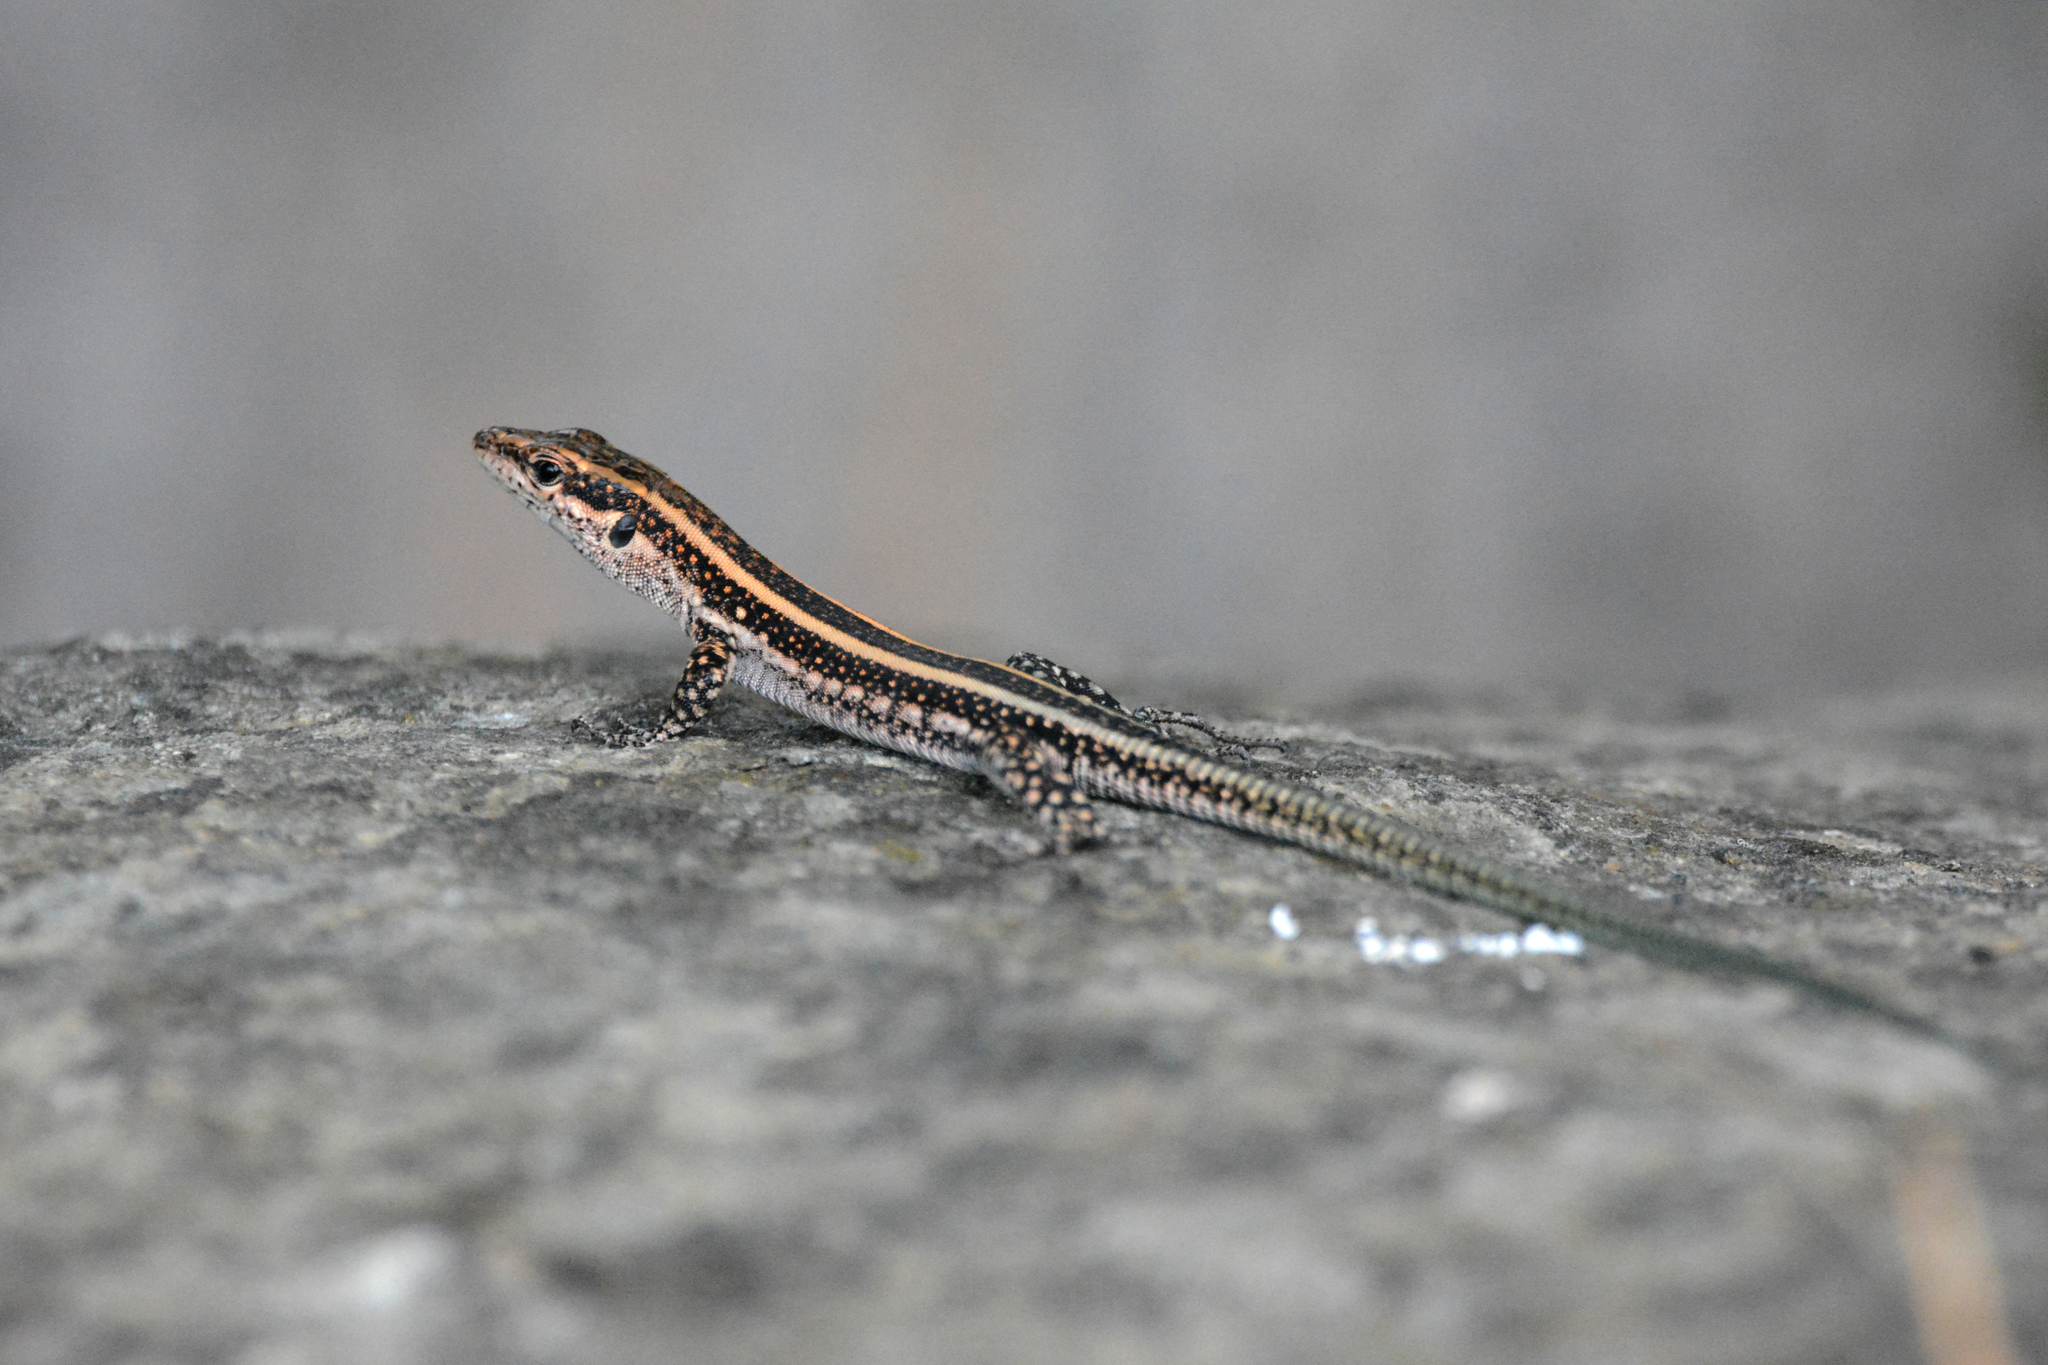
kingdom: Animalia
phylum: Chordata
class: Squamata
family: Lacertidae
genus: Anatololacerta
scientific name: Anatololacerta ibrahimi
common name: Baran’s lizard
